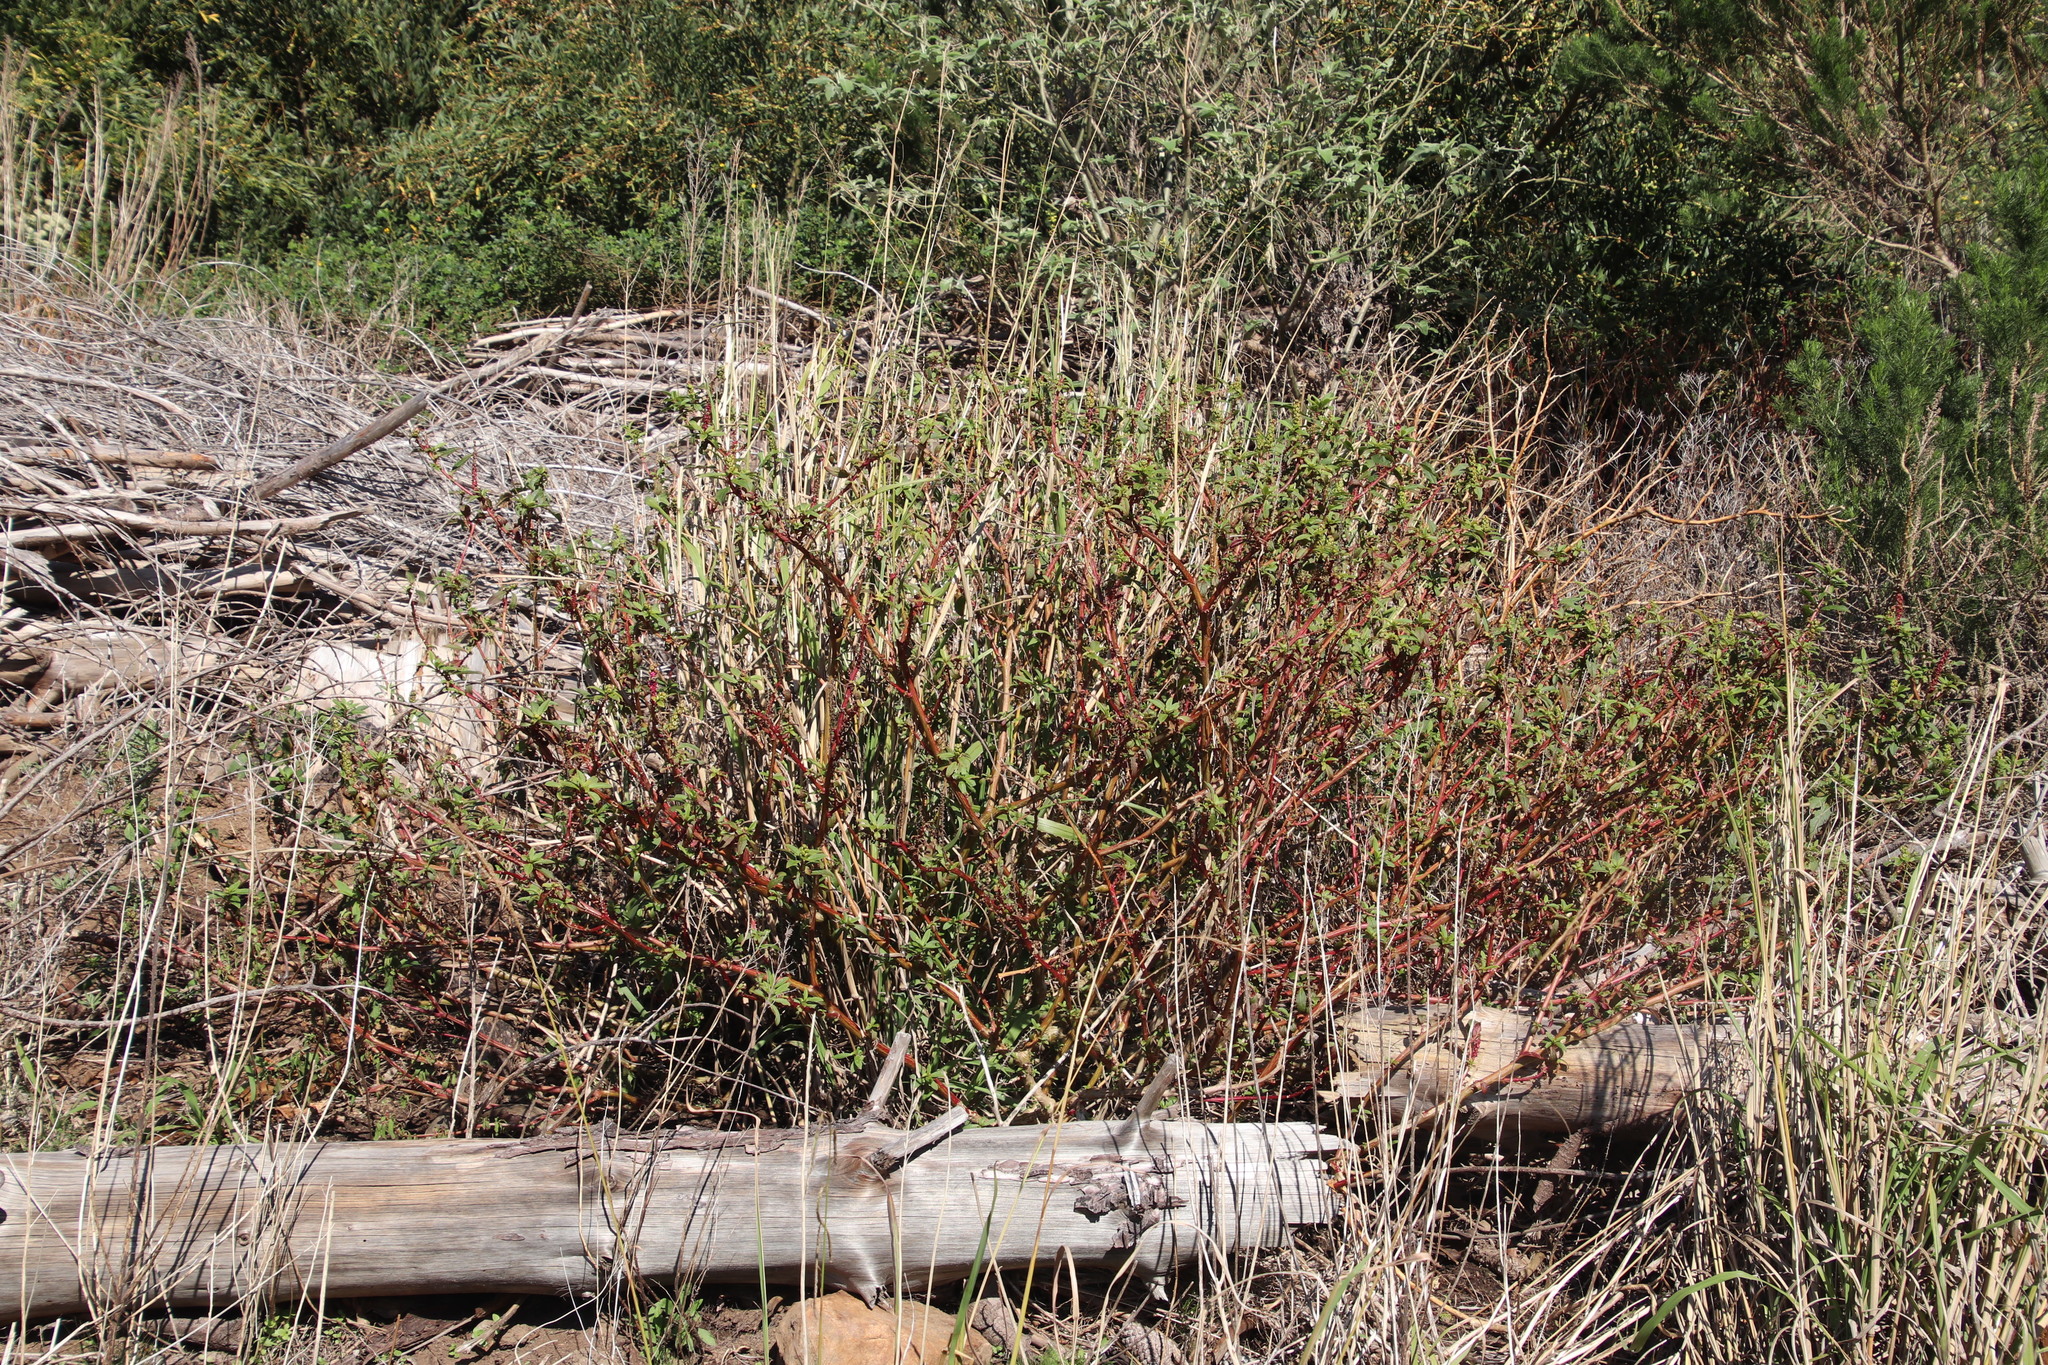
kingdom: Plantae
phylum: Tracheophyta
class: Magnoliopsida
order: Caryophyllales
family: Phytolaccaceae
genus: Phytolacca
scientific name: Phytolacca icosandra
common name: Button pokeweed
